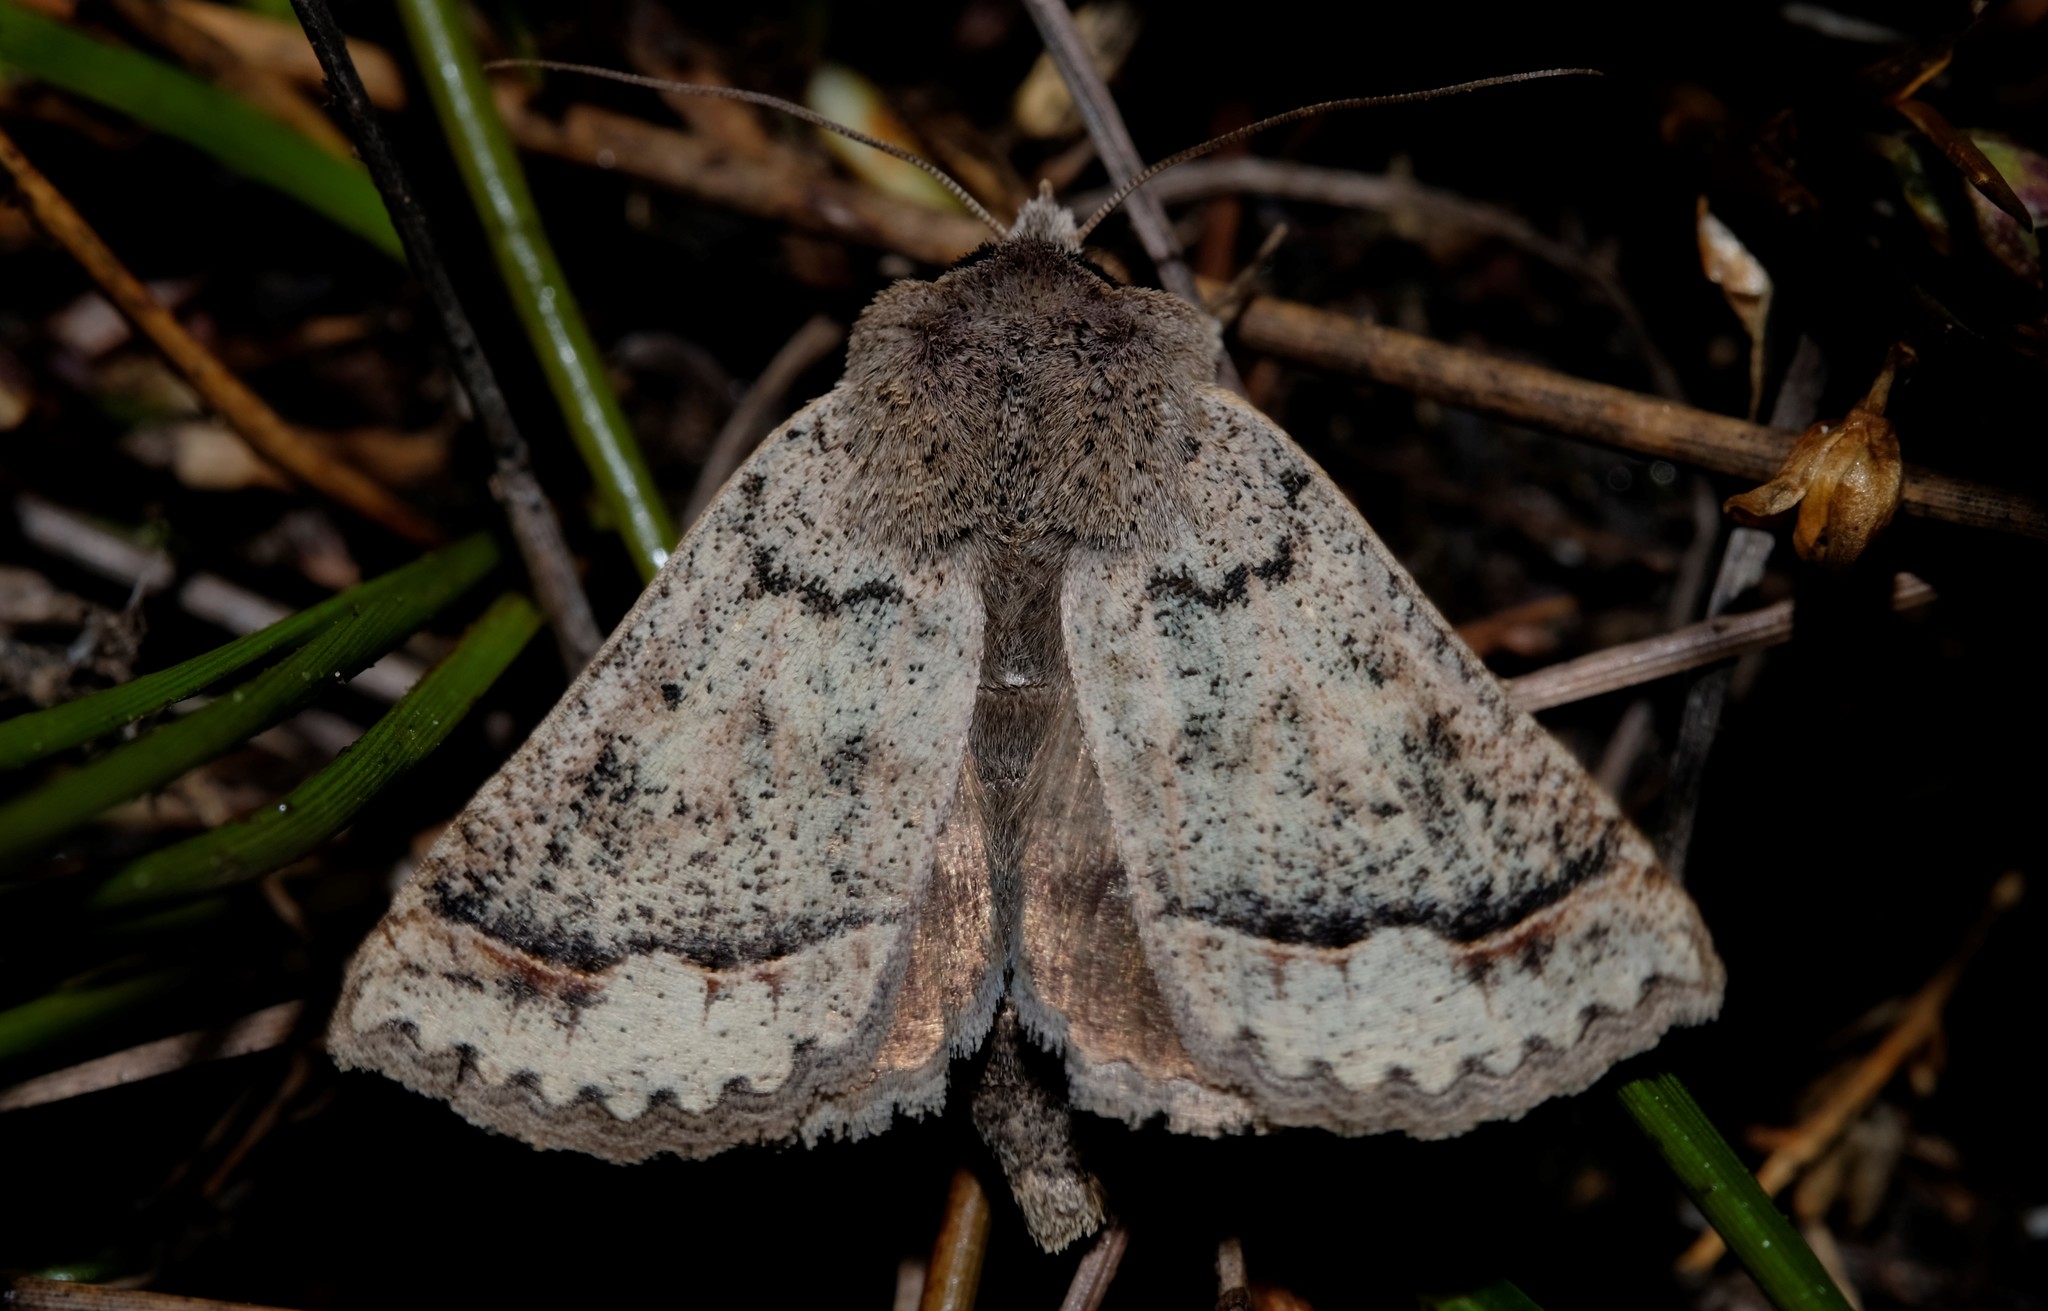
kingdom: Animalia
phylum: Arthropoda
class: Insecta
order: Lepidoptera
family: Erebidae
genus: Pantydia
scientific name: Pantydia diemeni
